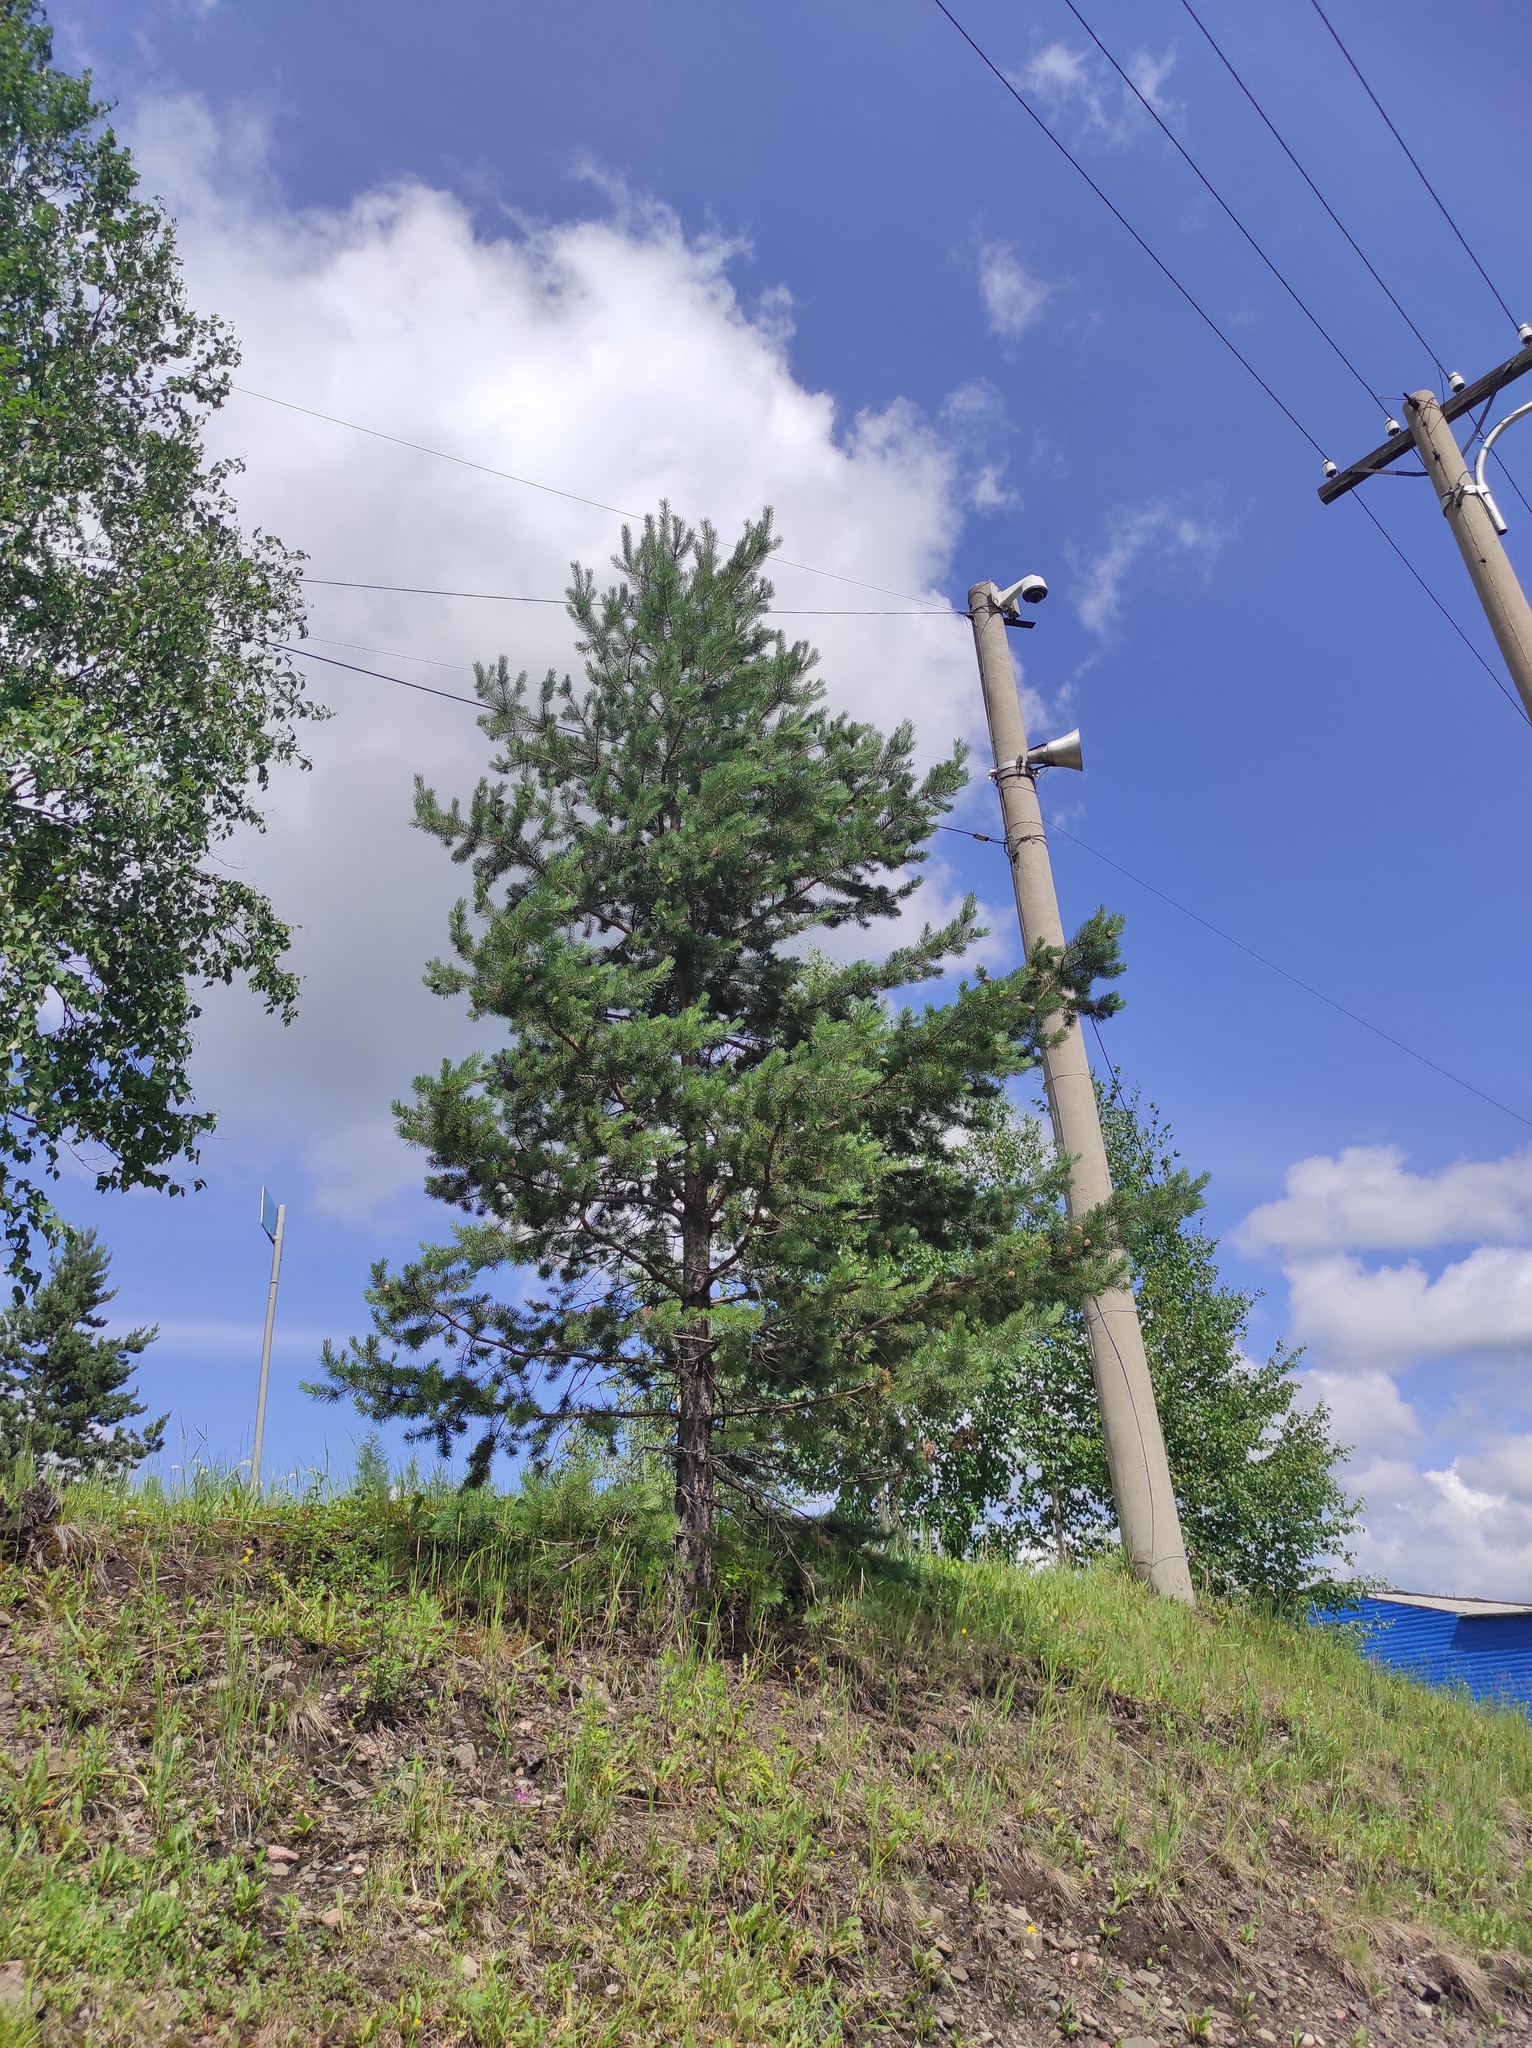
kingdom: Plantae
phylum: Tracheophyta
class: Pinopsida
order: Pinales
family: Pinaceae
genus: Pinus
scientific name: Pinus sylvestris
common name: Scots pine
